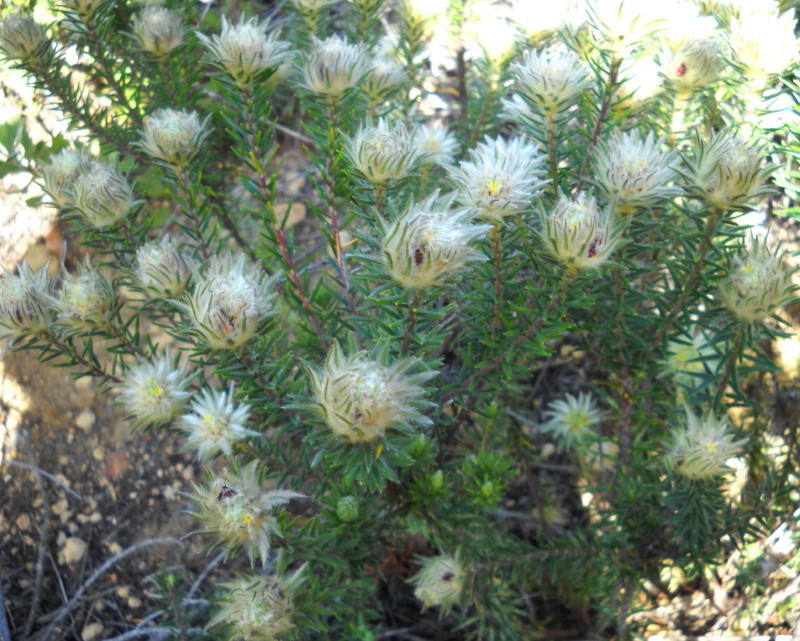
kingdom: Plantae
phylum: Tracheophyta
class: Magnoliopsida
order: Rosales
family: Rhamnaceae
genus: Phylica
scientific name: Phylica pubescens
